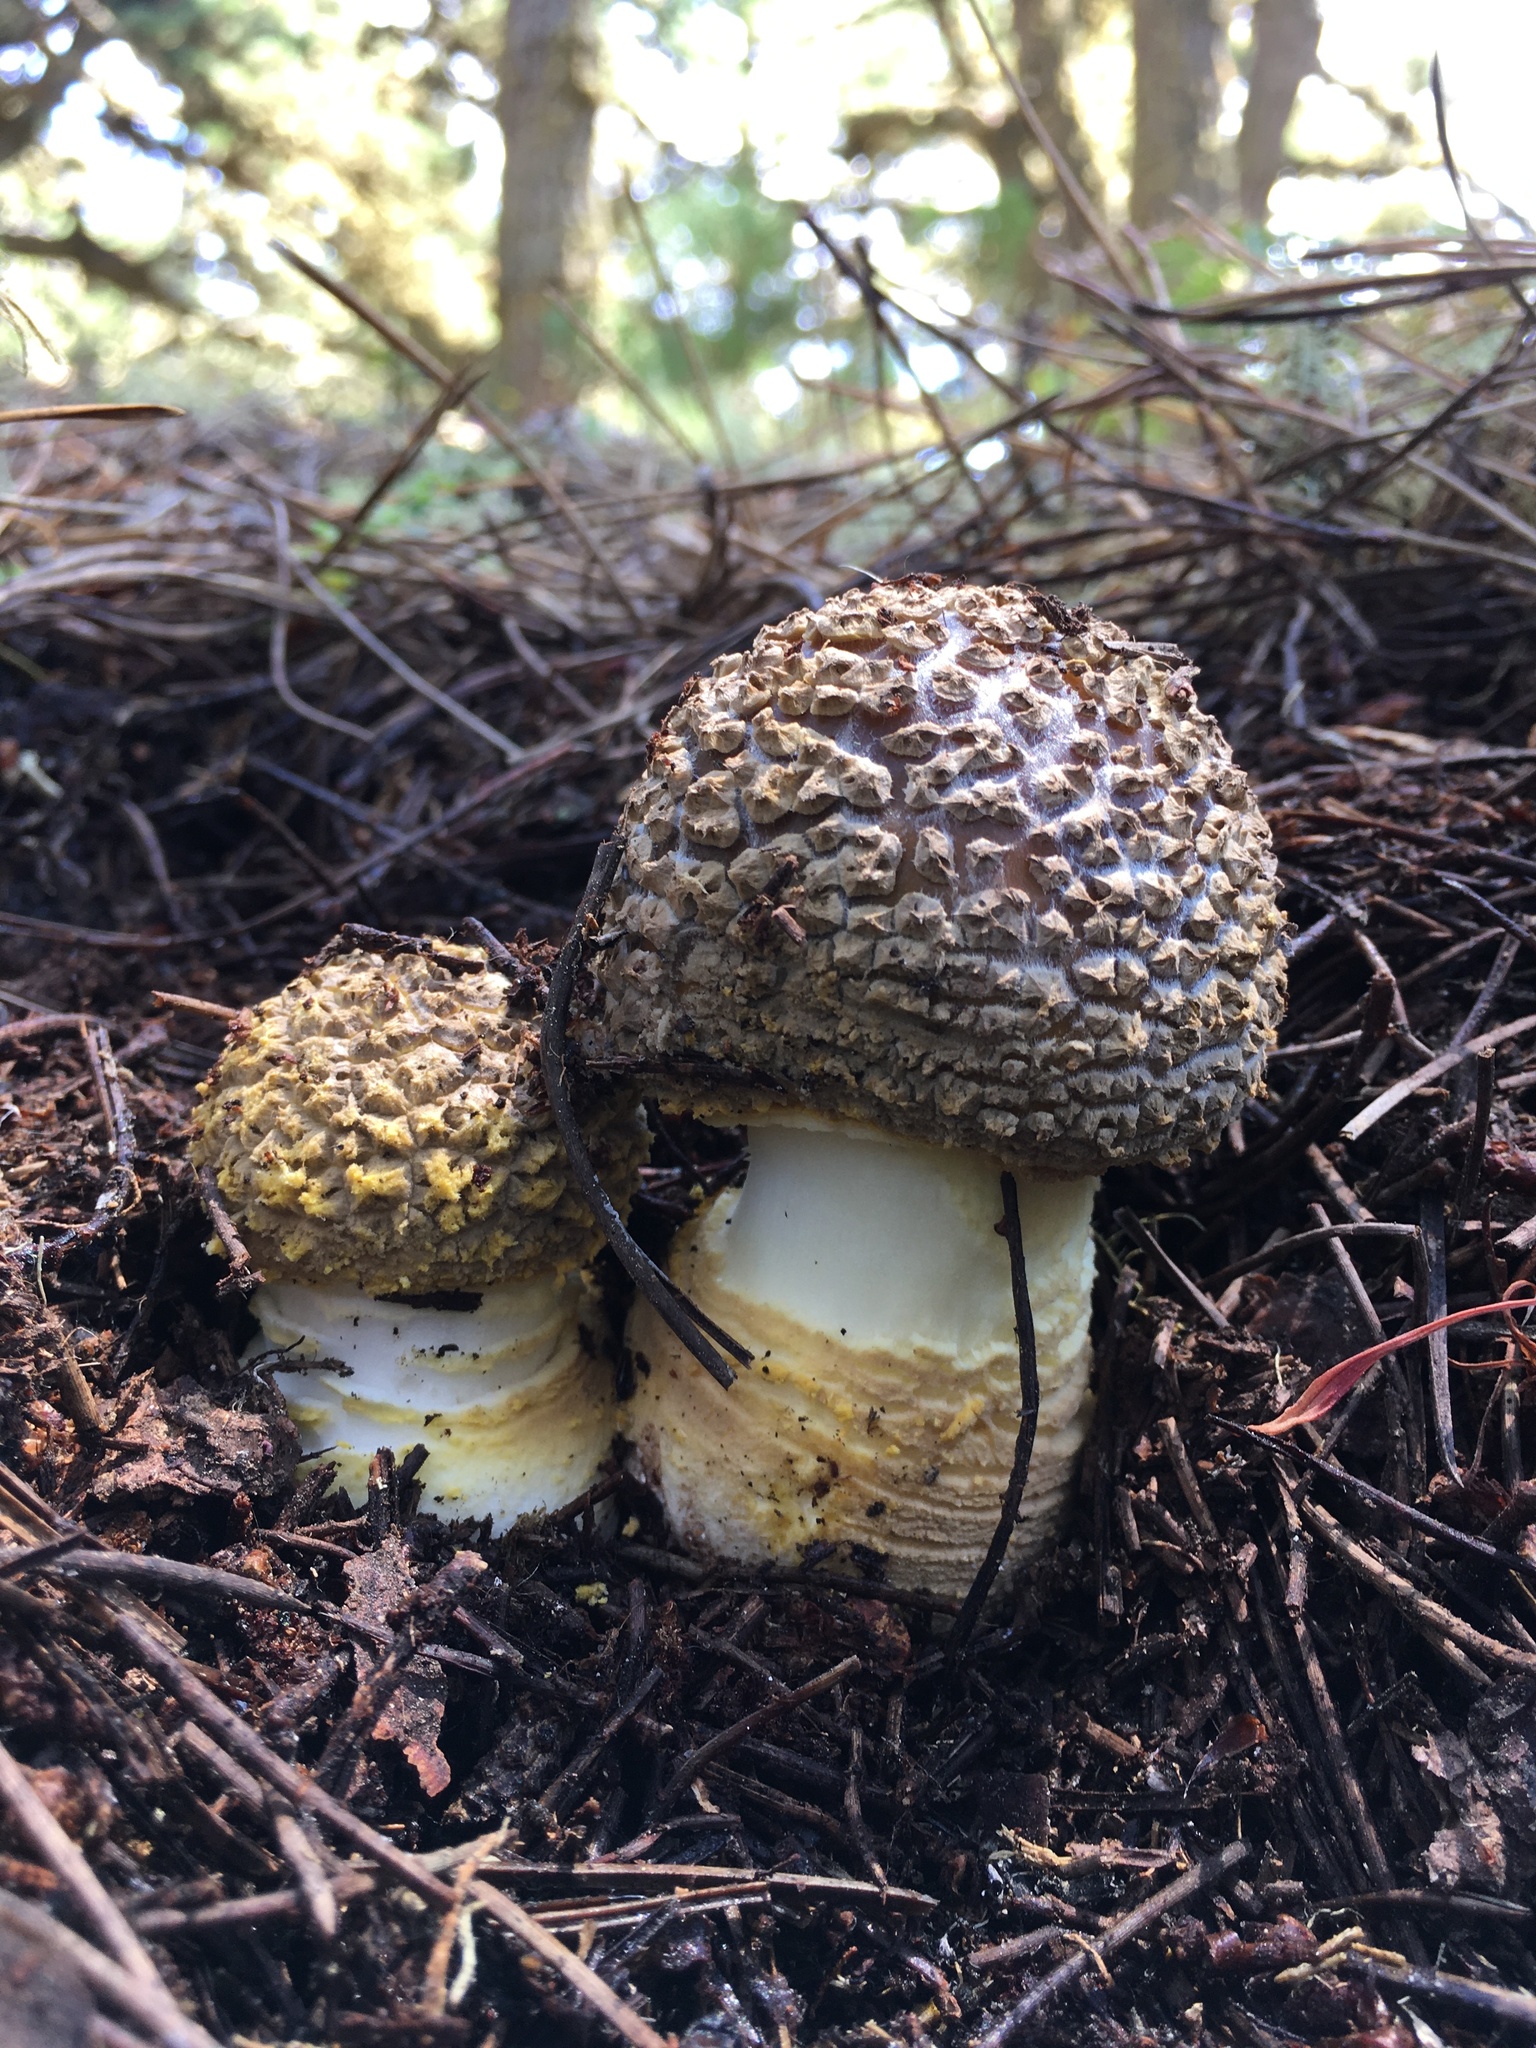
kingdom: Fungi
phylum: Basidiomycota
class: Agaricomycetes
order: Agaricales
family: Amanitaceae
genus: Amanita
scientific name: Amanita augusta
